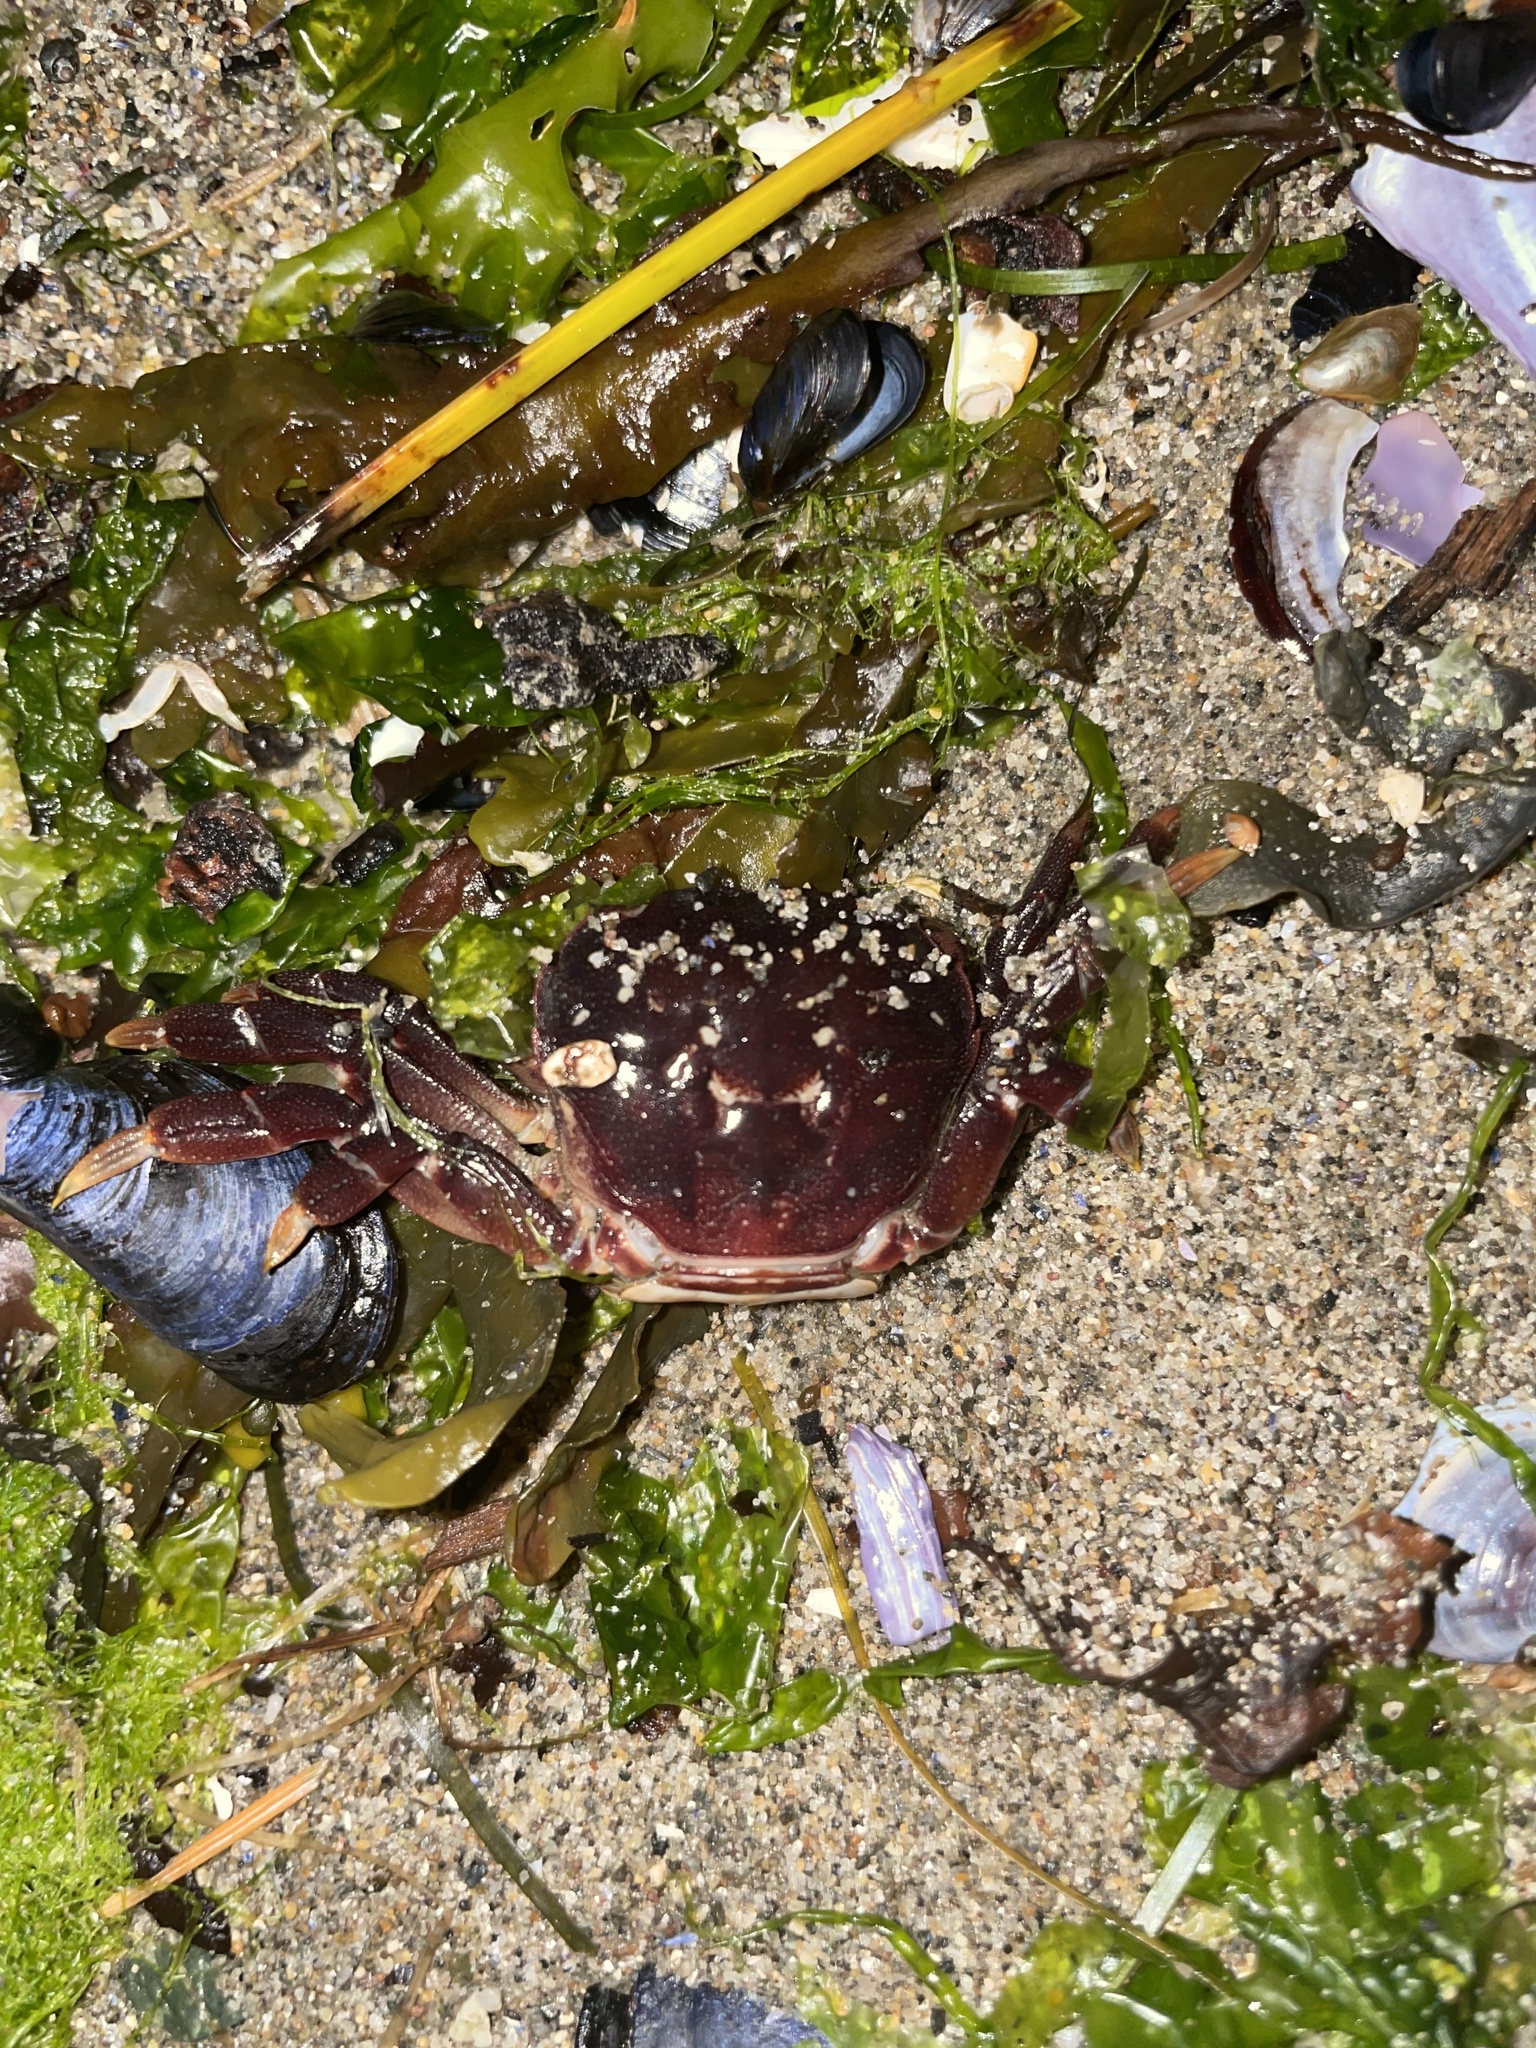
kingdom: Animalia
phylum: Arthropoda
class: Malacostraca
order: Decapoda
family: Varunidae
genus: Hemigrapsus
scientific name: Hemigrapsus nudus
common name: Purple shore crab
